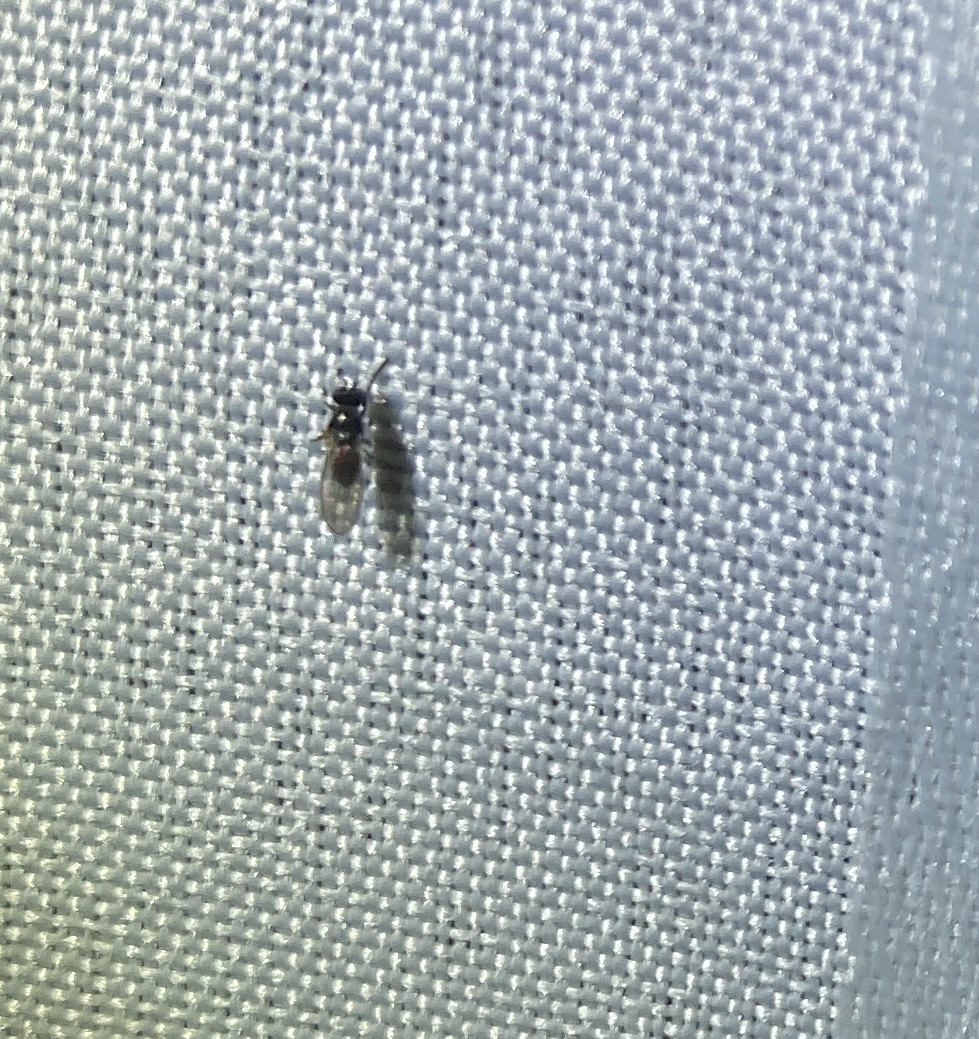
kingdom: Animalia
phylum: Arthropoda
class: Insecta
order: Diptera
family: Ephydridae
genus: Hydrellia
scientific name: Hydrellia tritici
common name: Shore fly
